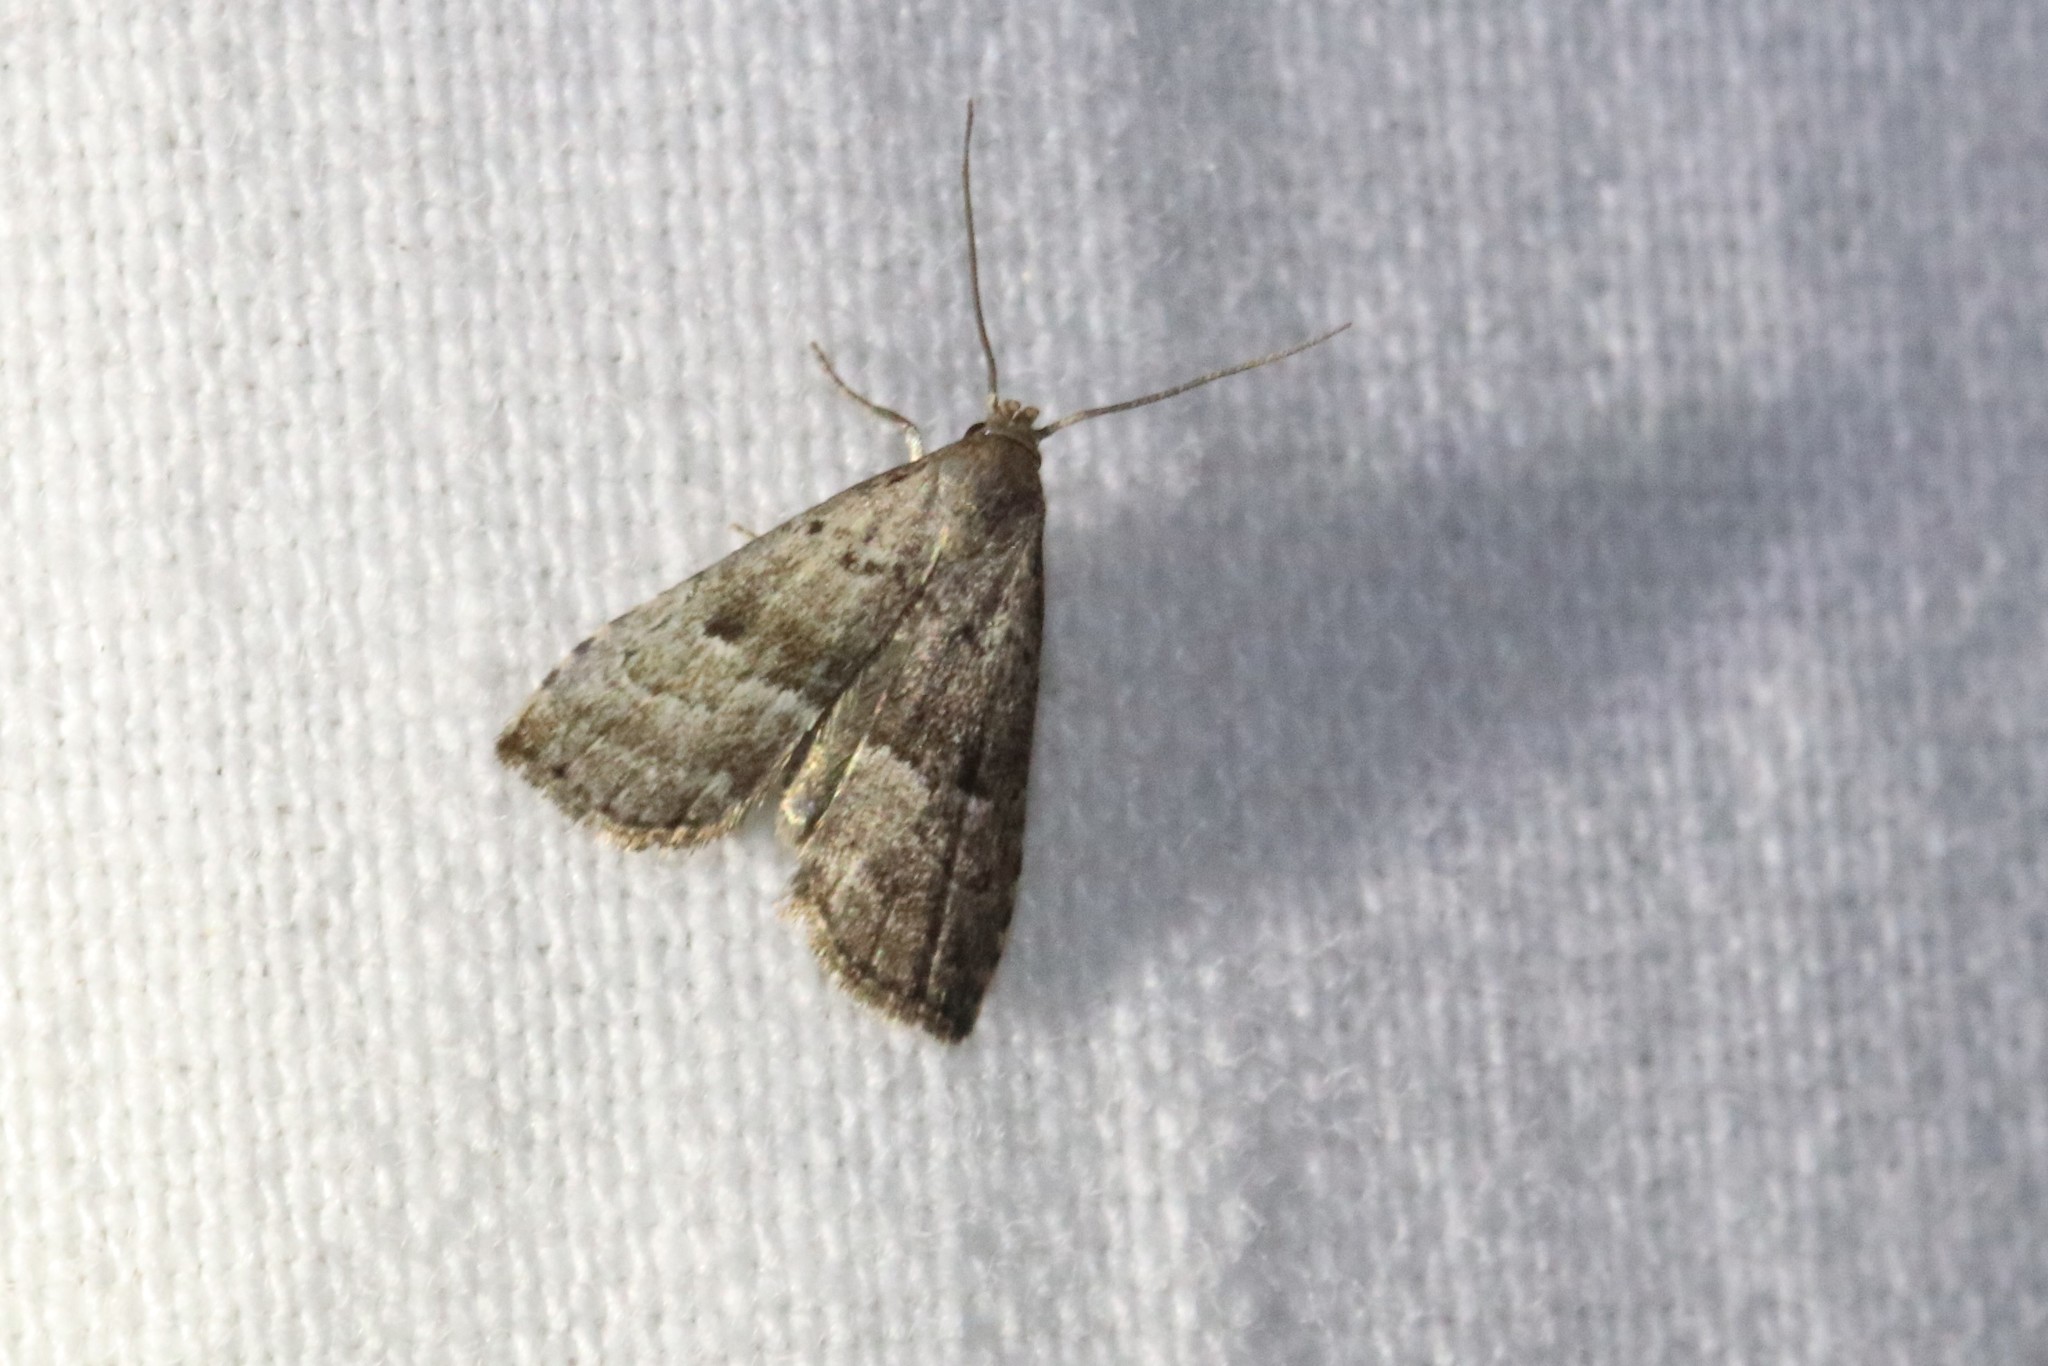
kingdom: Animalia
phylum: Arthropoda
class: Insecta
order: Lepidoptera
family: Erebidae
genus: Hypenodes
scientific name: Hypenodes fractilinea
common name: Broken-line hypenodes moth
